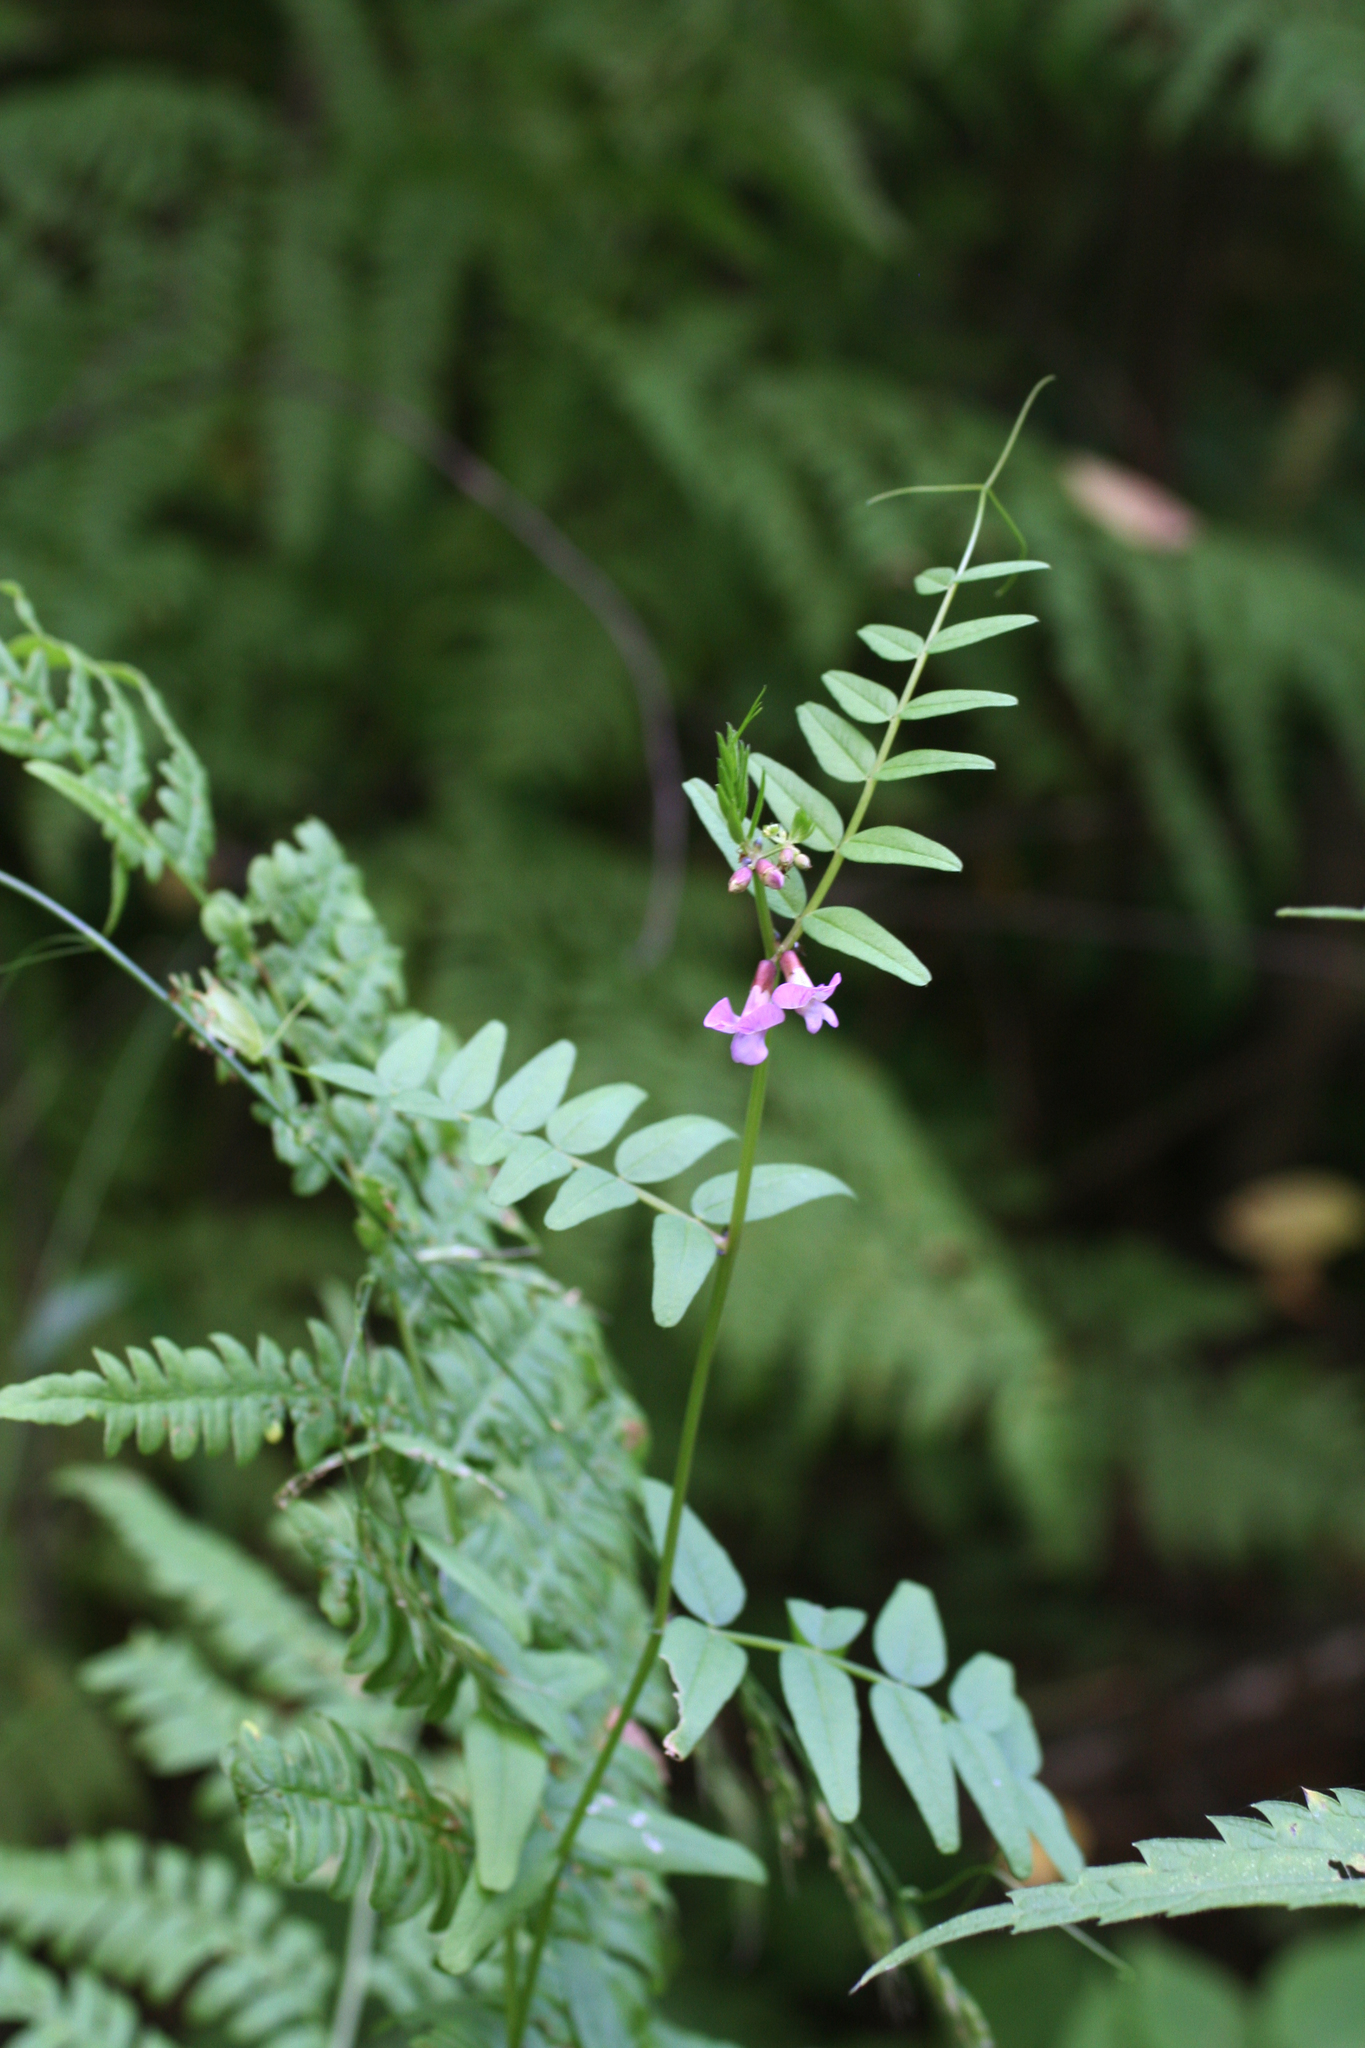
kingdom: Plantae
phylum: Tracheophyta
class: Magnoliopsida
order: Fabales
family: Fabaceae
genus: Vicia
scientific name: Vicia sepium
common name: Bush vetch
